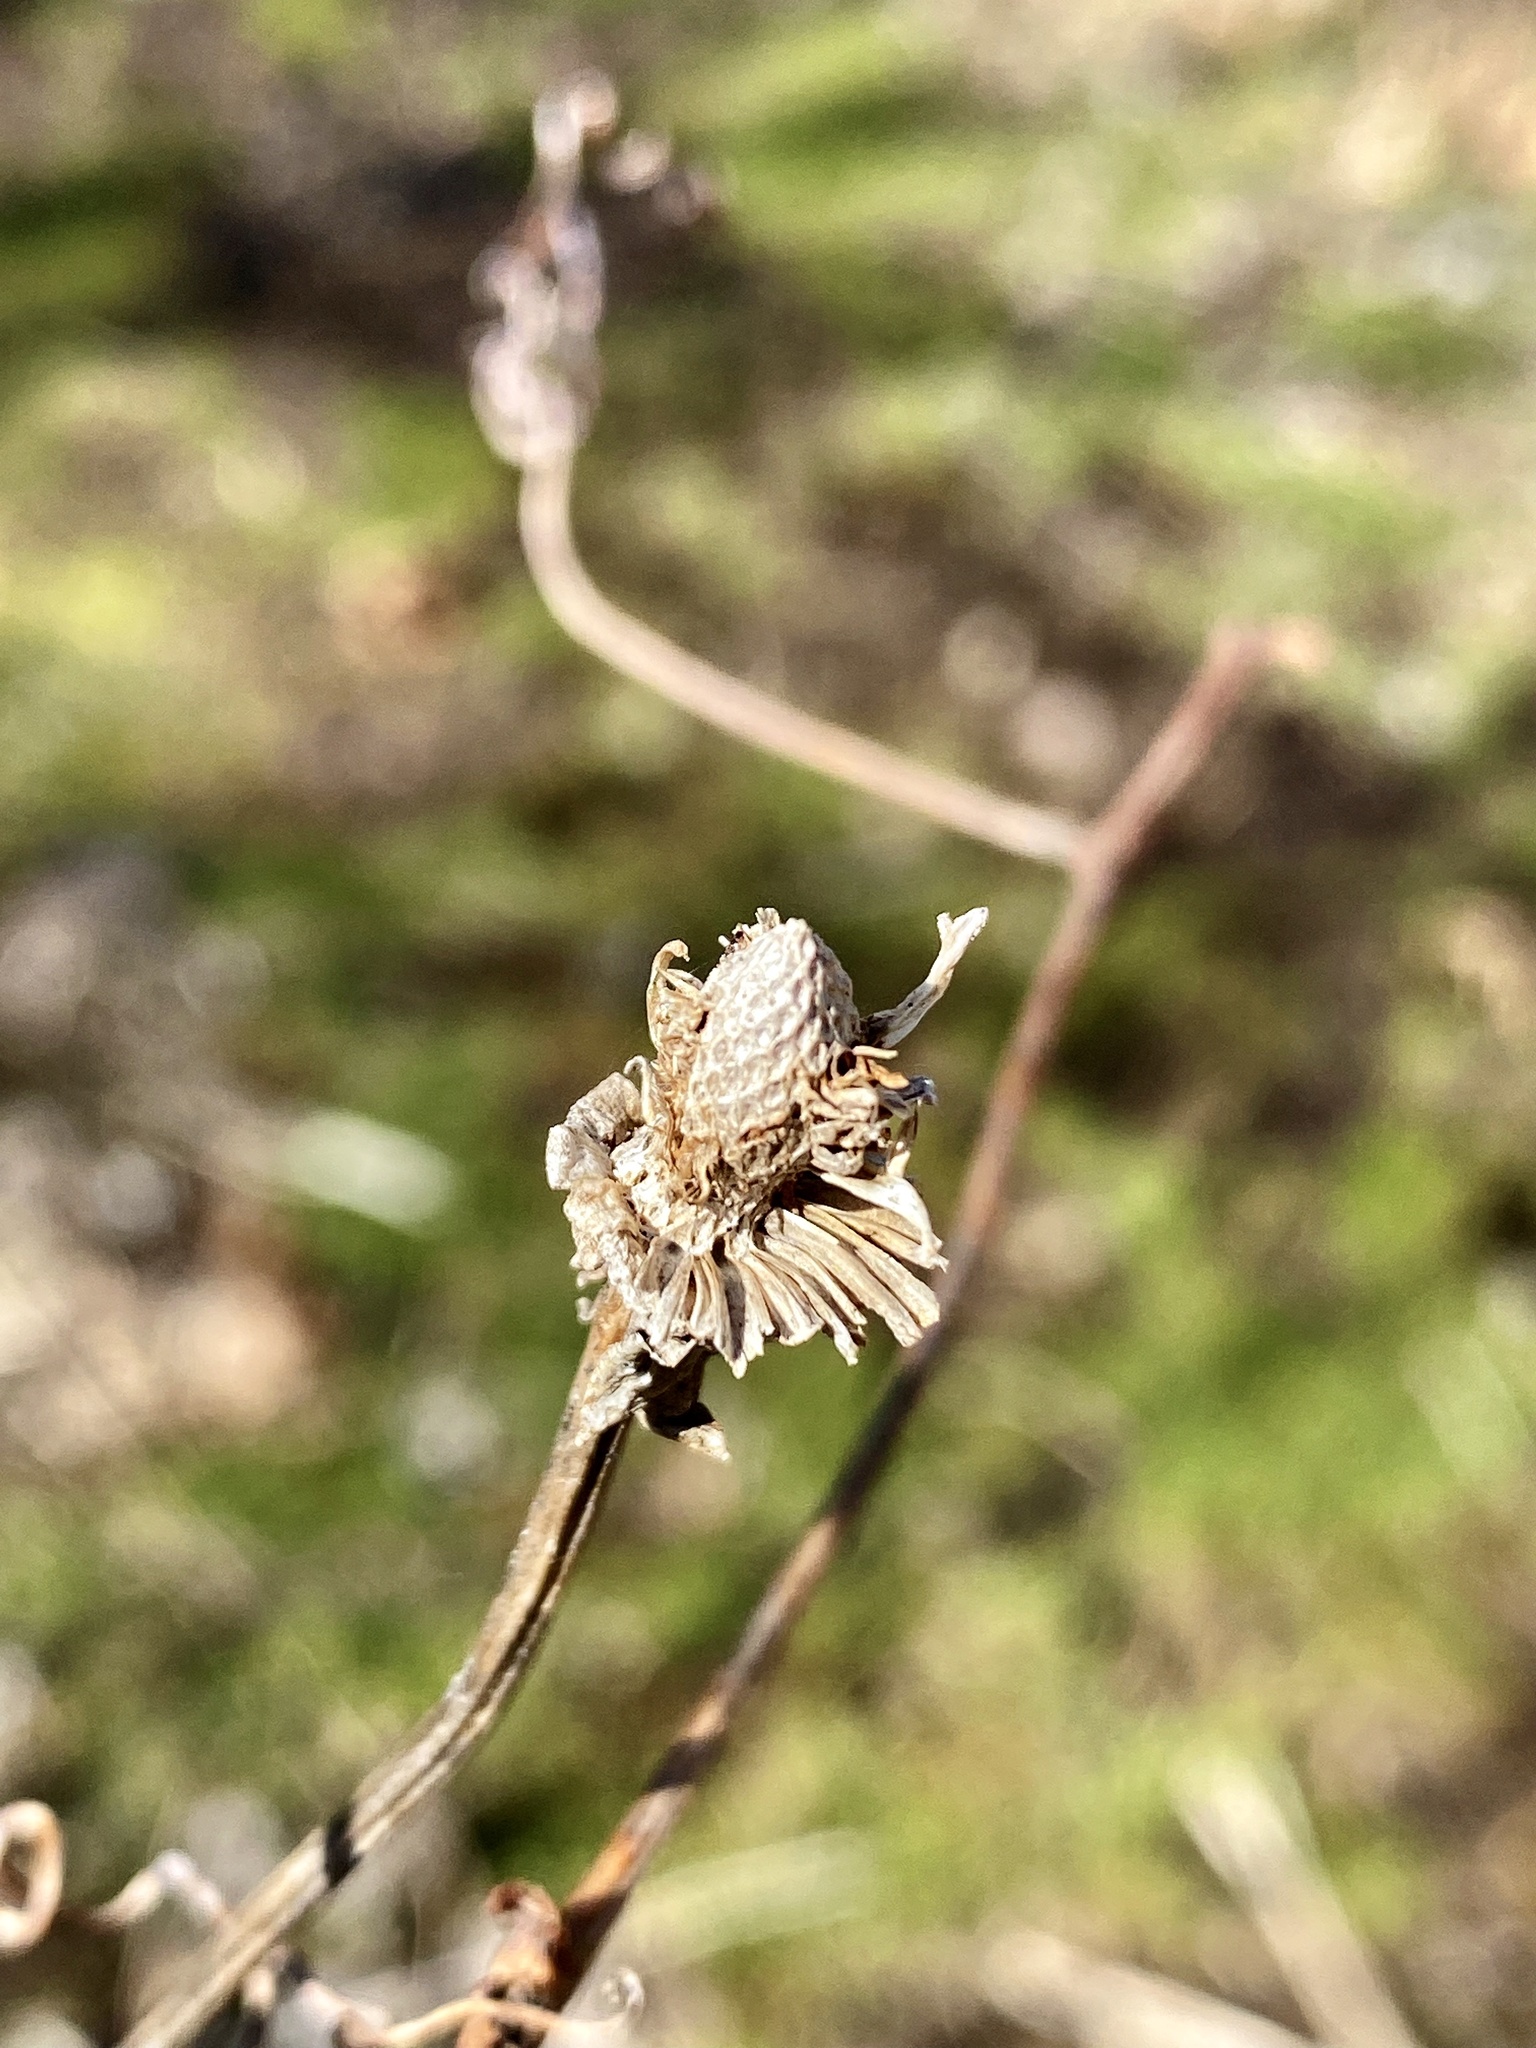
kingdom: Plantae
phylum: Tracheophyta
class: Magnoliopsida
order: Asterales
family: Asteraceae
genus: Rudbeckia
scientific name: Rudbeckia laciniata
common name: Coneflower
